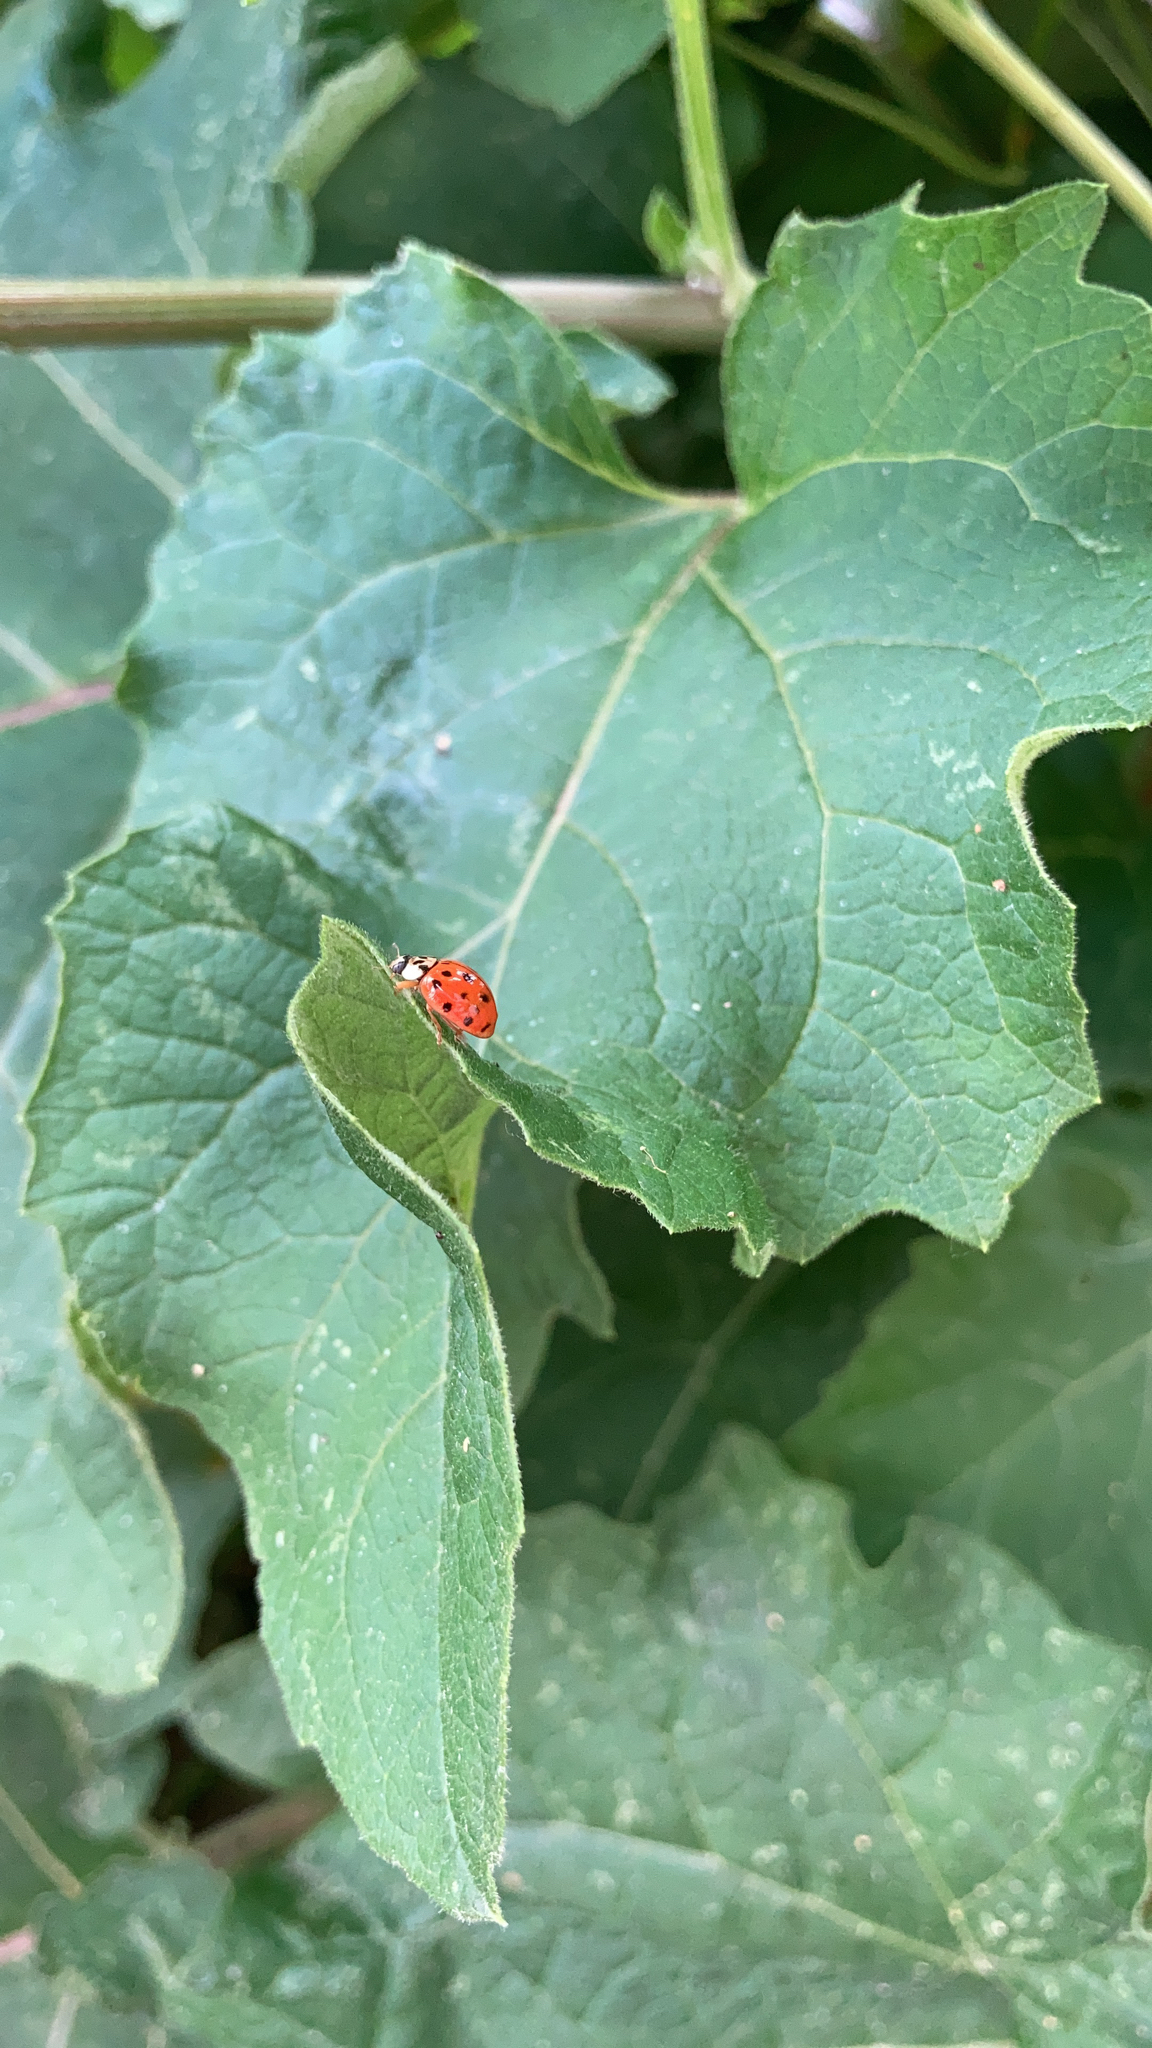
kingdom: Animalia
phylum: Arthropoda
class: Insecta
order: Coleoptera
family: Coccinellidae
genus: Harmonia
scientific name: Harmonia axyridis
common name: Harlequin ladybird
